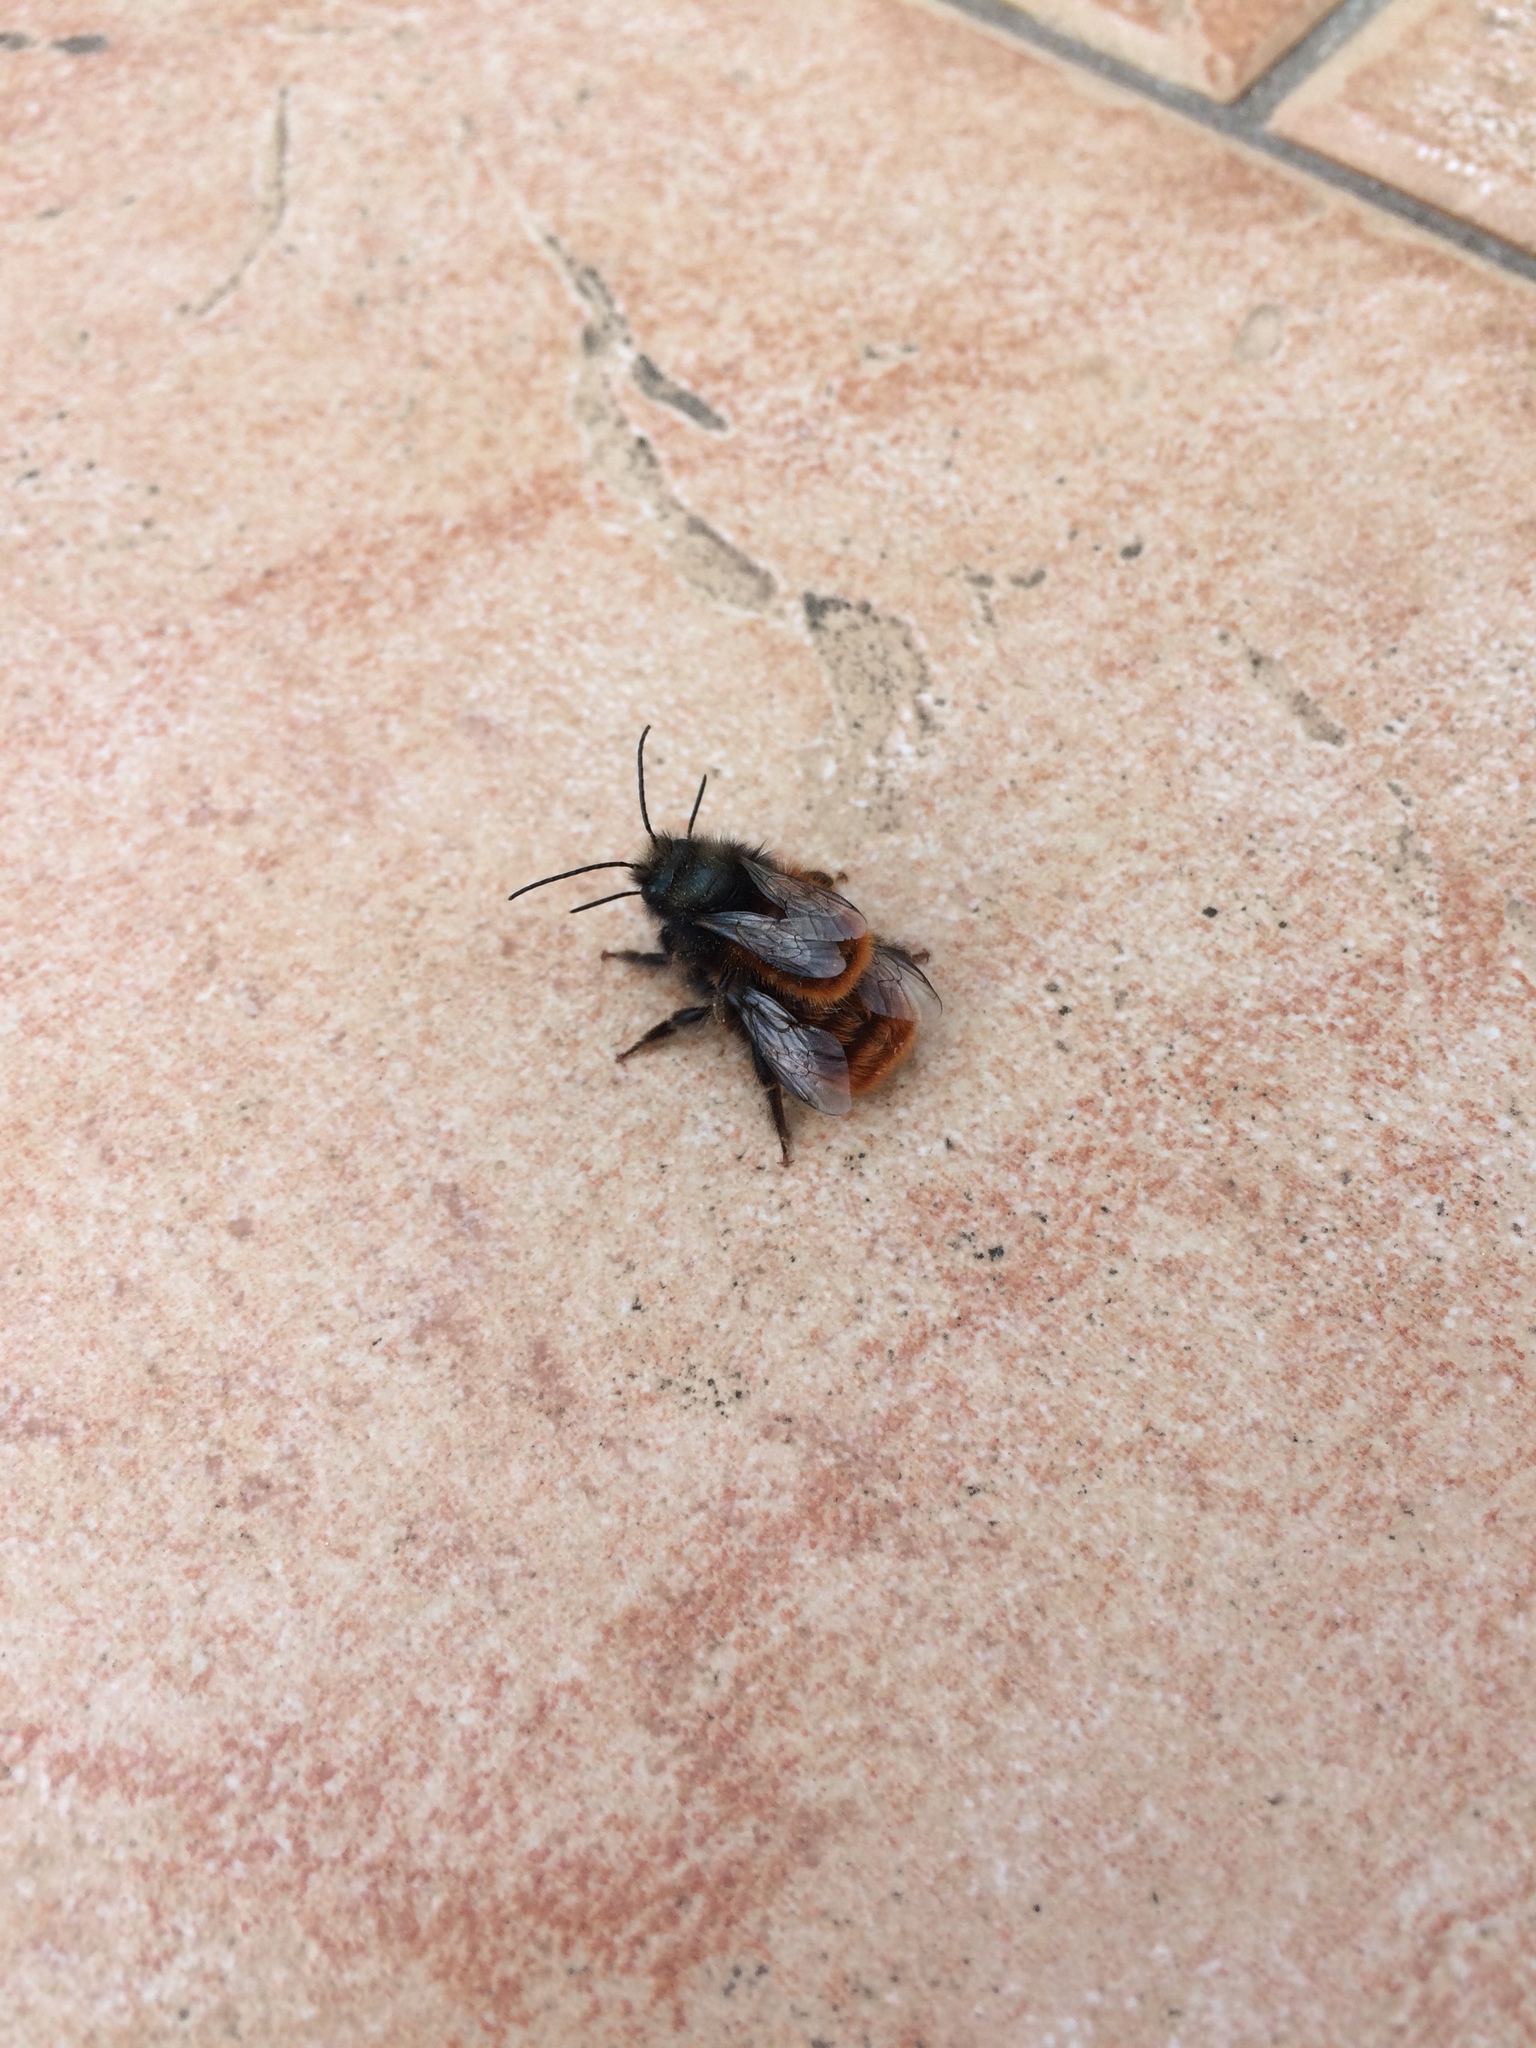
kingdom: Animalia
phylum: Arthropoda
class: Insecta
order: Hymenoptera
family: Megachilidae
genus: Osmia
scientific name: Osmia cornuta
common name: Mason bee
